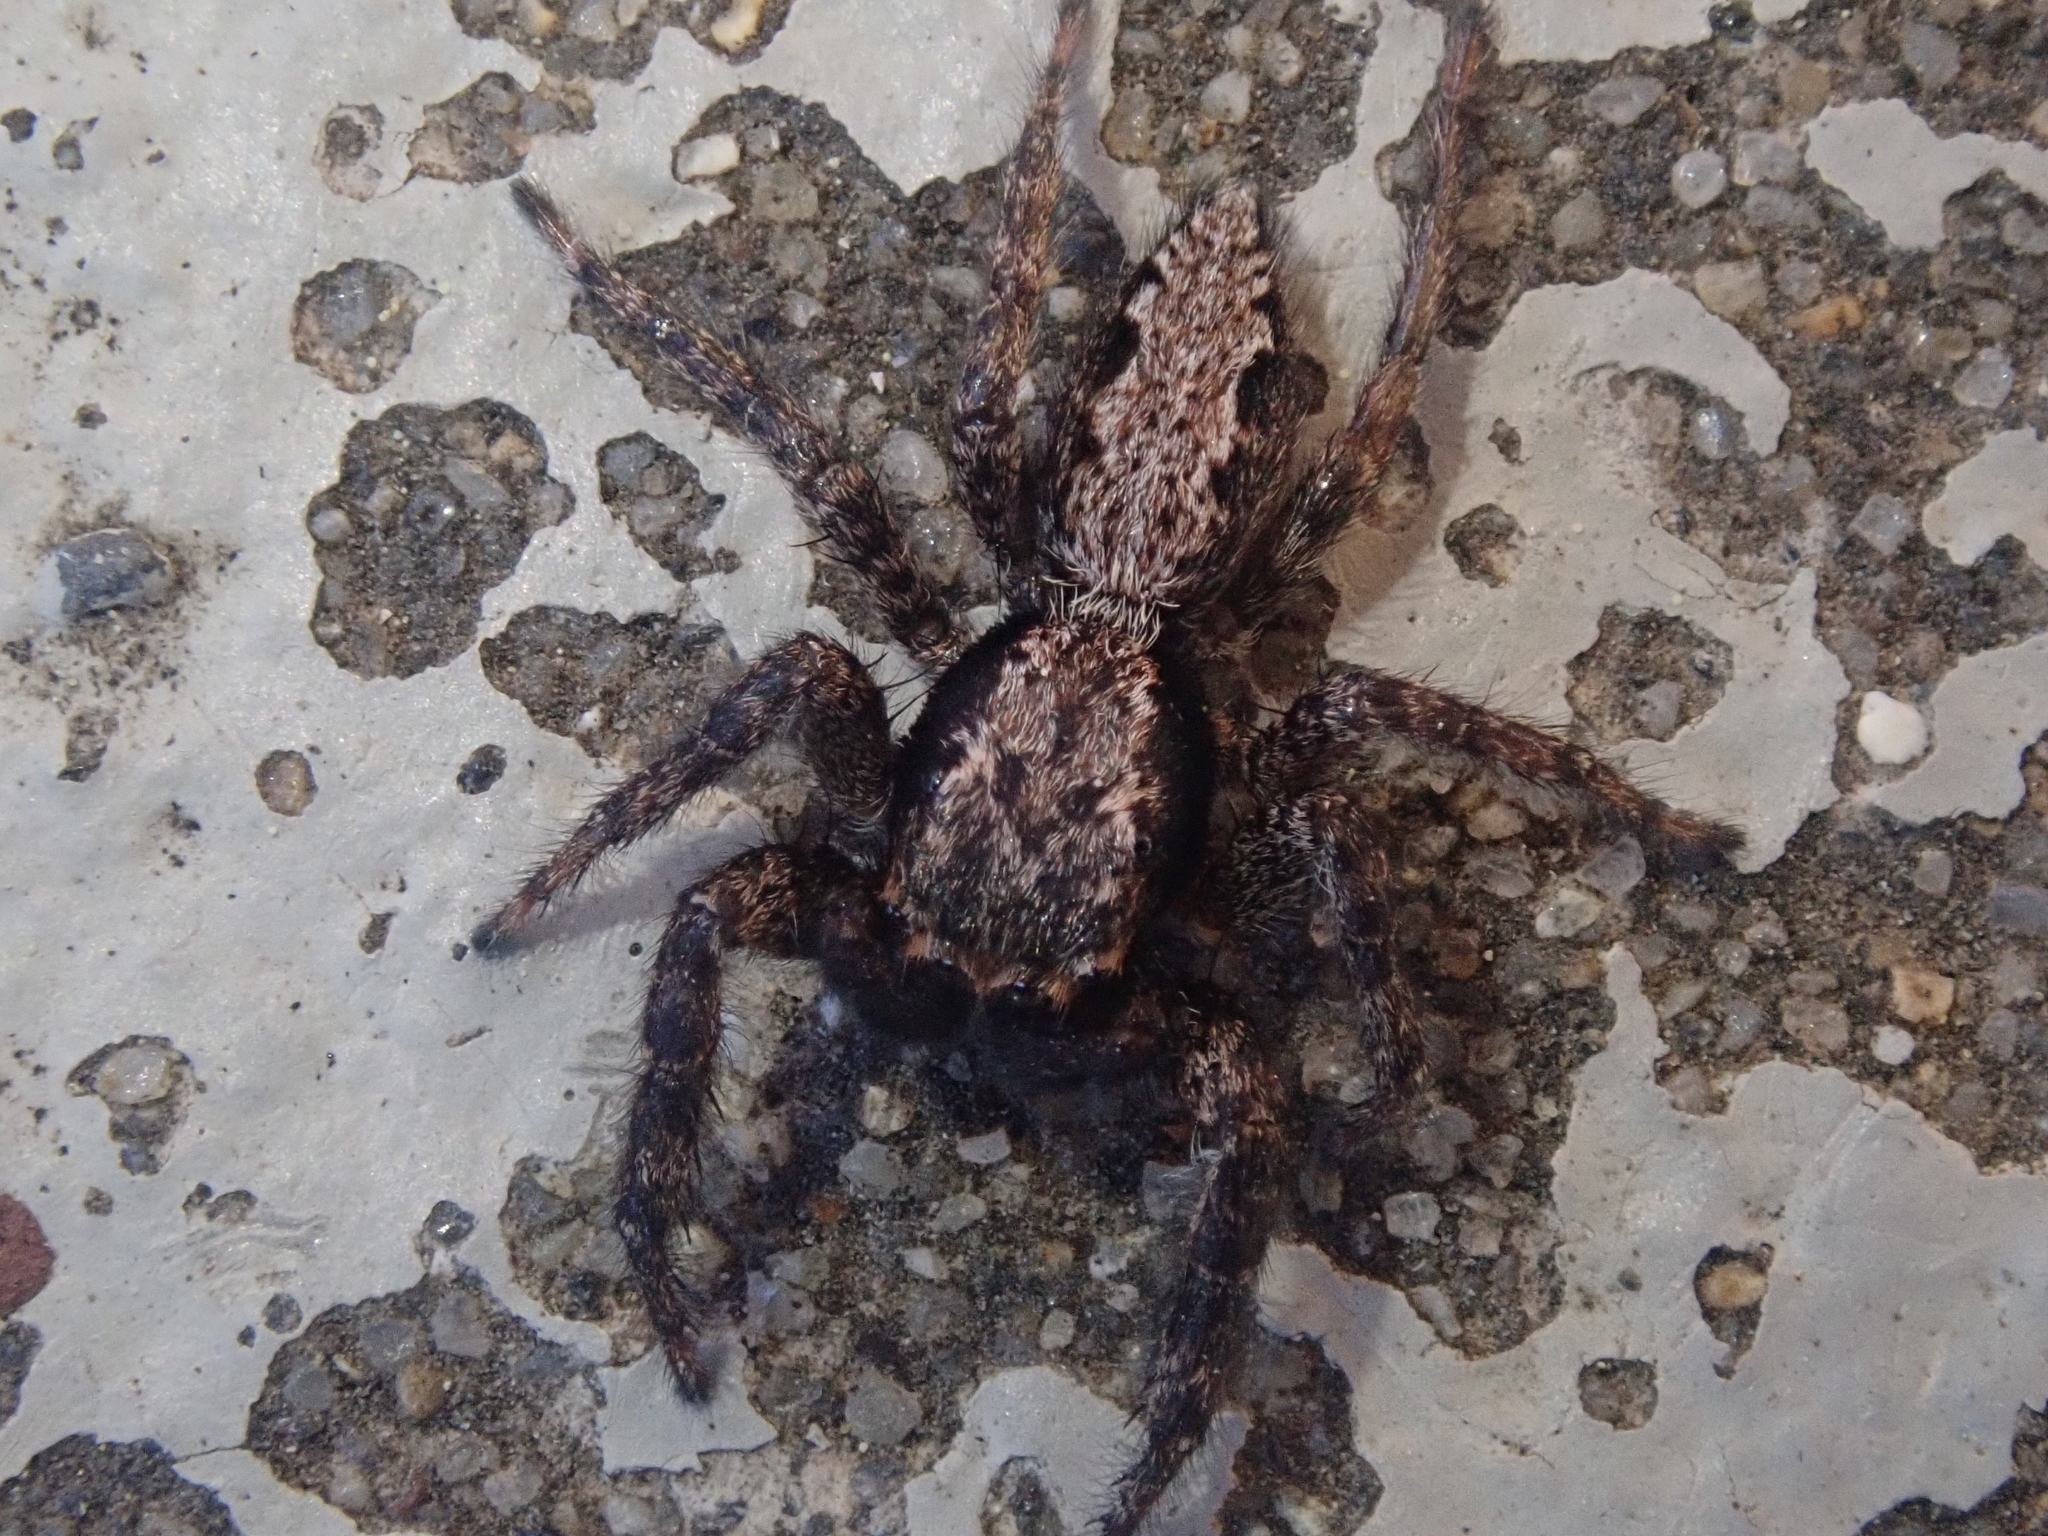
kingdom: Animalia
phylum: Arthropoda
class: Arachnida
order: Araneae
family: Salticidae
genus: Platycryptus
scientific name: Platycryptus californicus
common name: Jumping spiders
